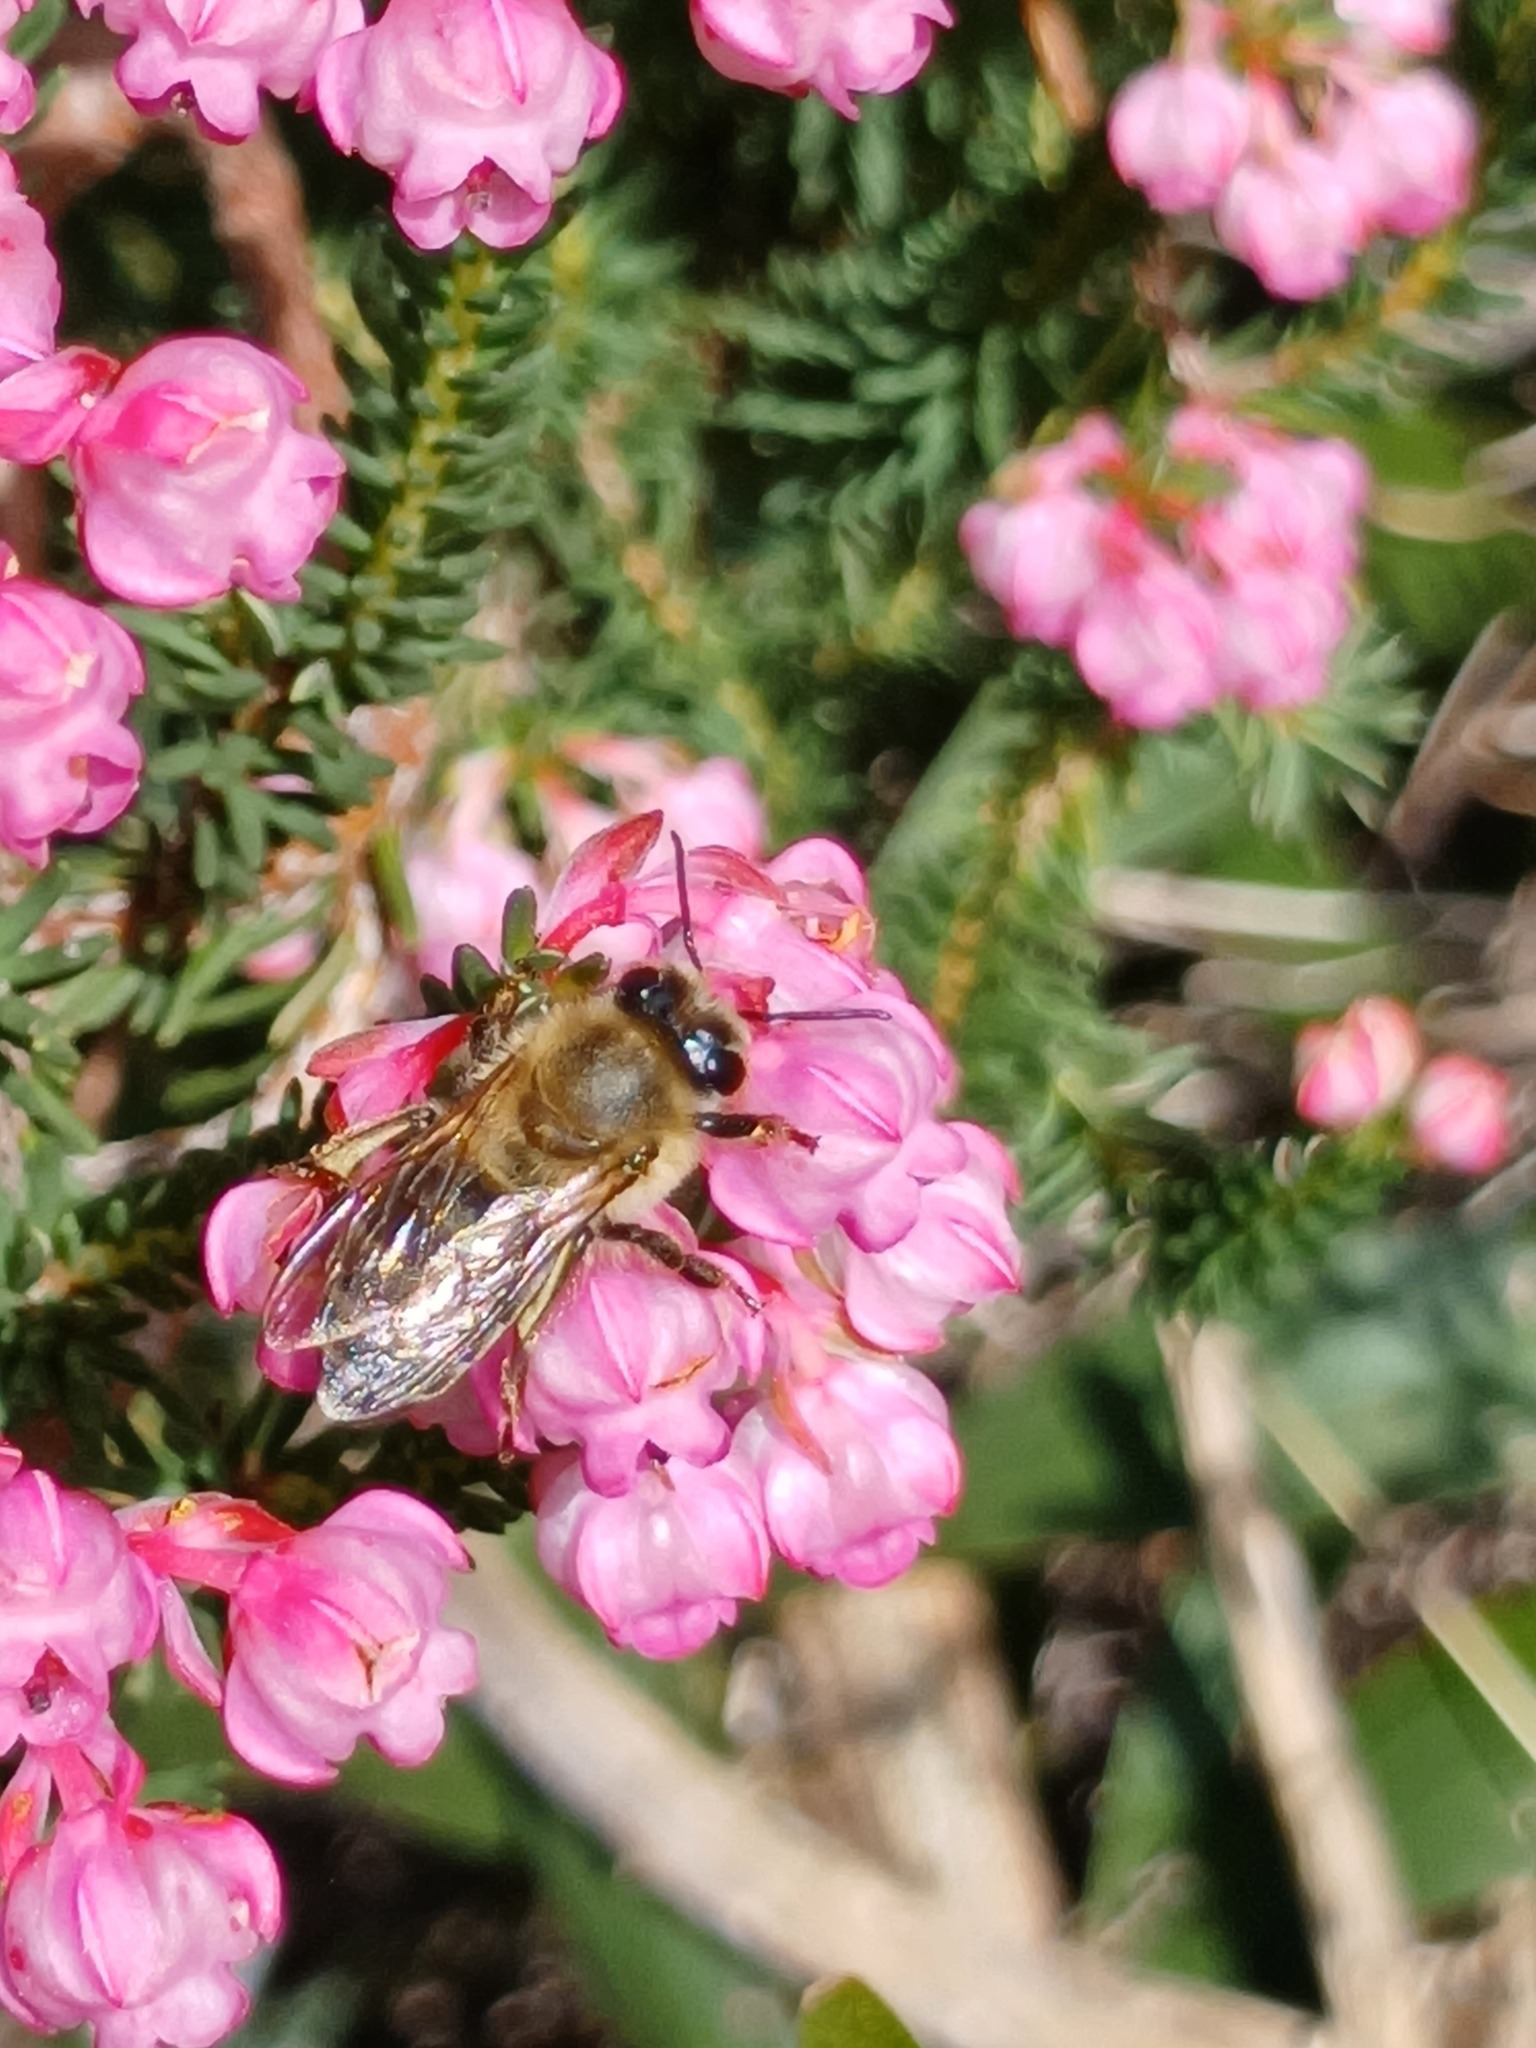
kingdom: Animalia
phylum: Arthropoda
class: Insecta
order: Hymenoptera
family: Apidae
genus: Apis
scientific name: Apis mellifera
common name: Honey bee
